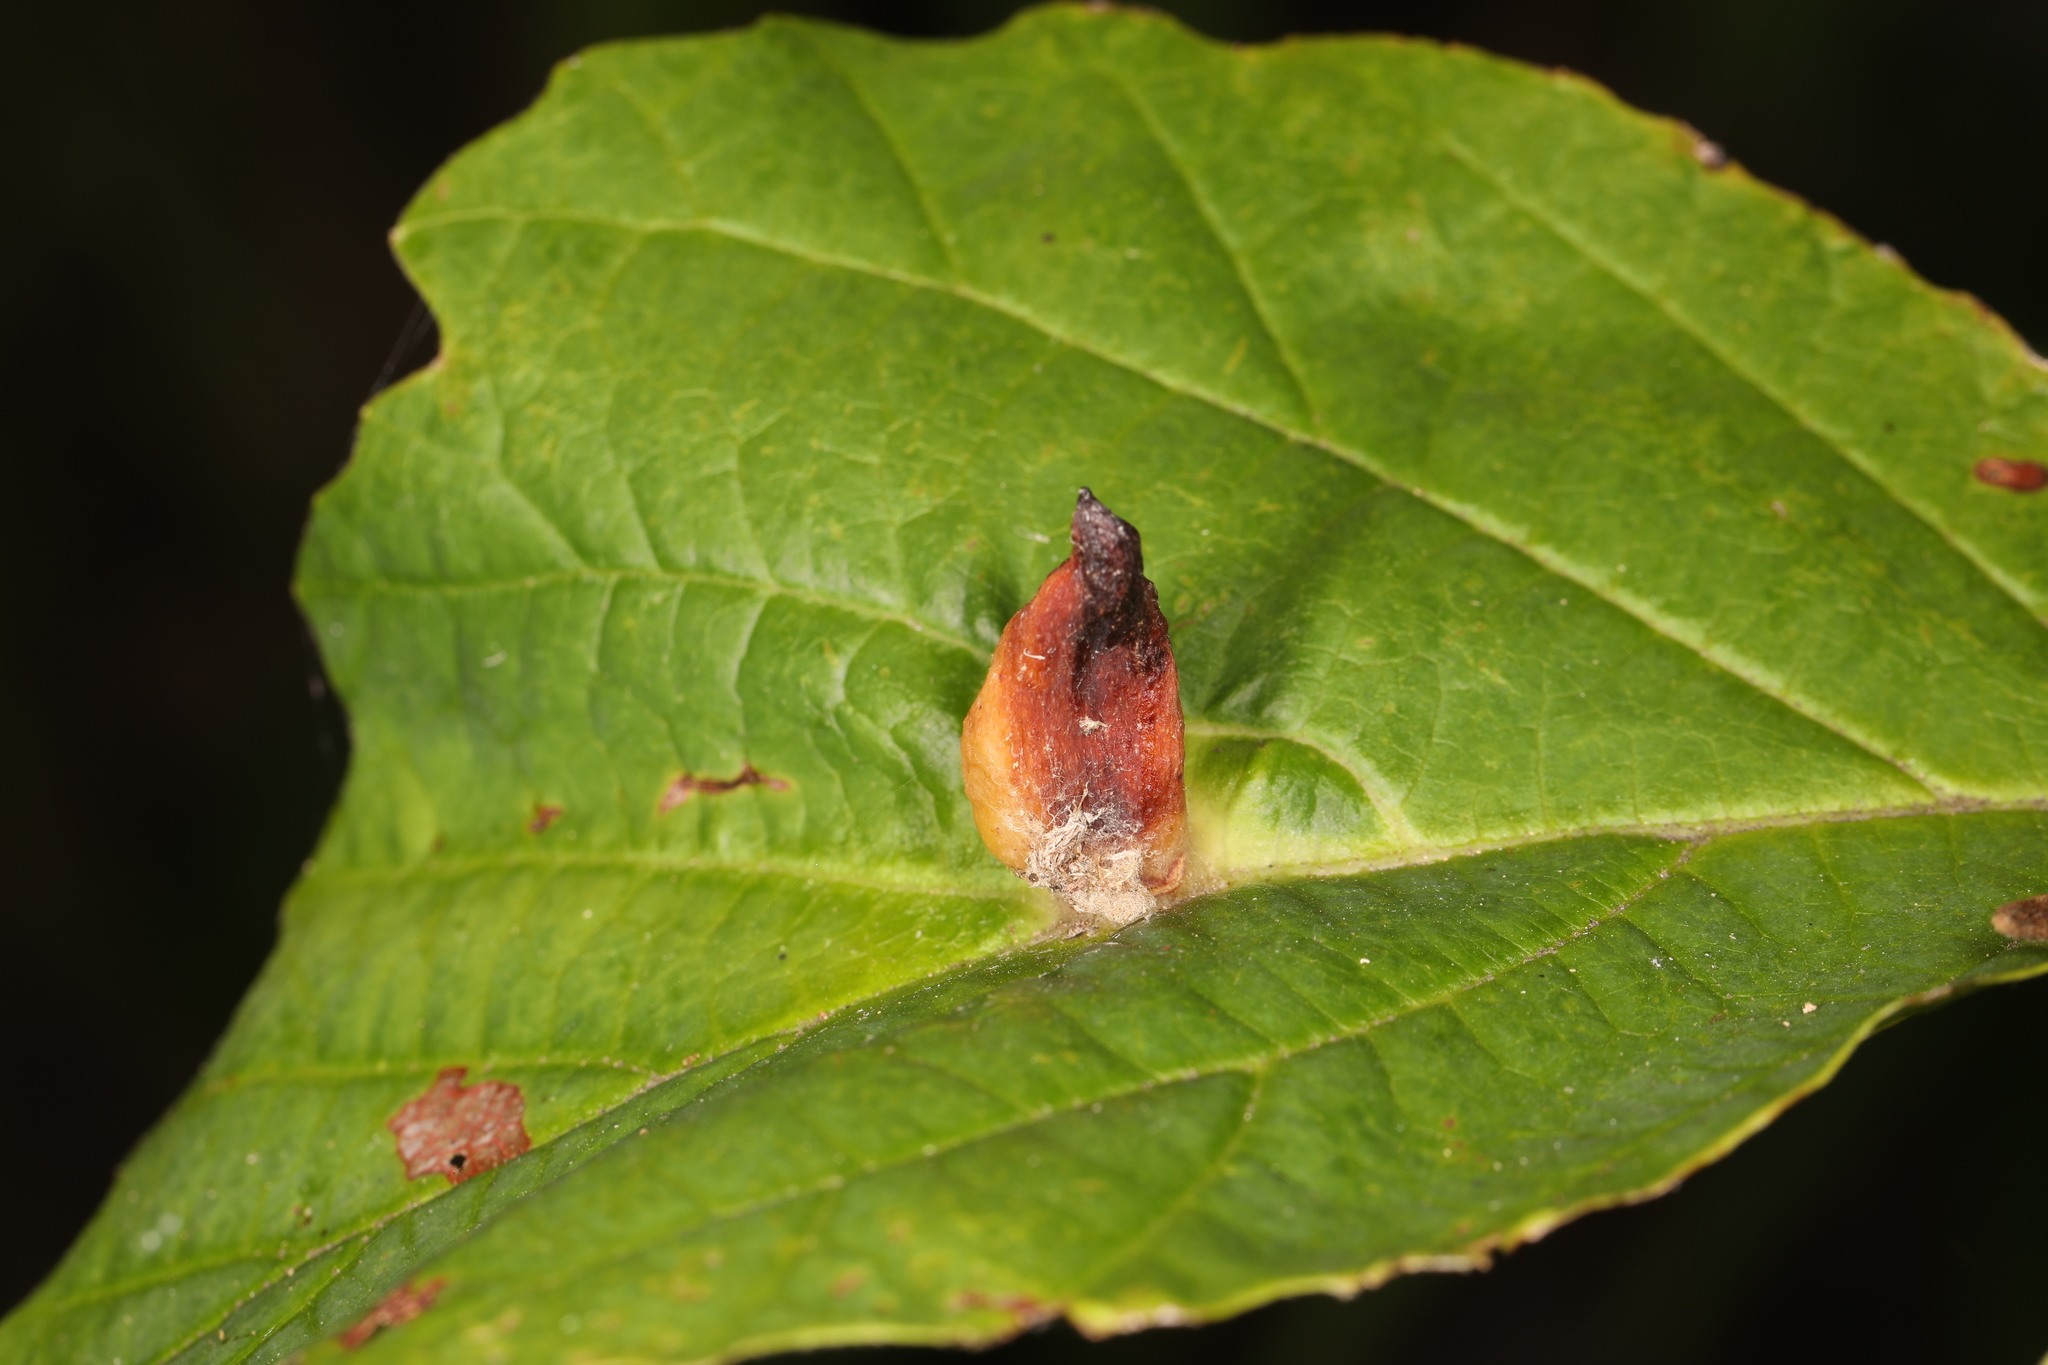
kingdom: Animalia
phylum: Arthropoda
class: Insecta
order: Hemiptera
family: Aphididae
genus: Hormaphis
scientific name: Hormaphis hamamelidis
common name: Witch-hazel cone gall aphid
